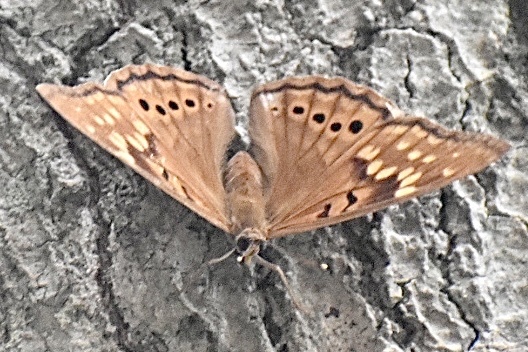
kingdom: Animalia
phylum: Arthropoda
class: Insecta
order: Lepidoptera
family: Nymphalidae
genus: Asterocampa
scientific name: Asterocampa clyton
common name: Tawny emperor
